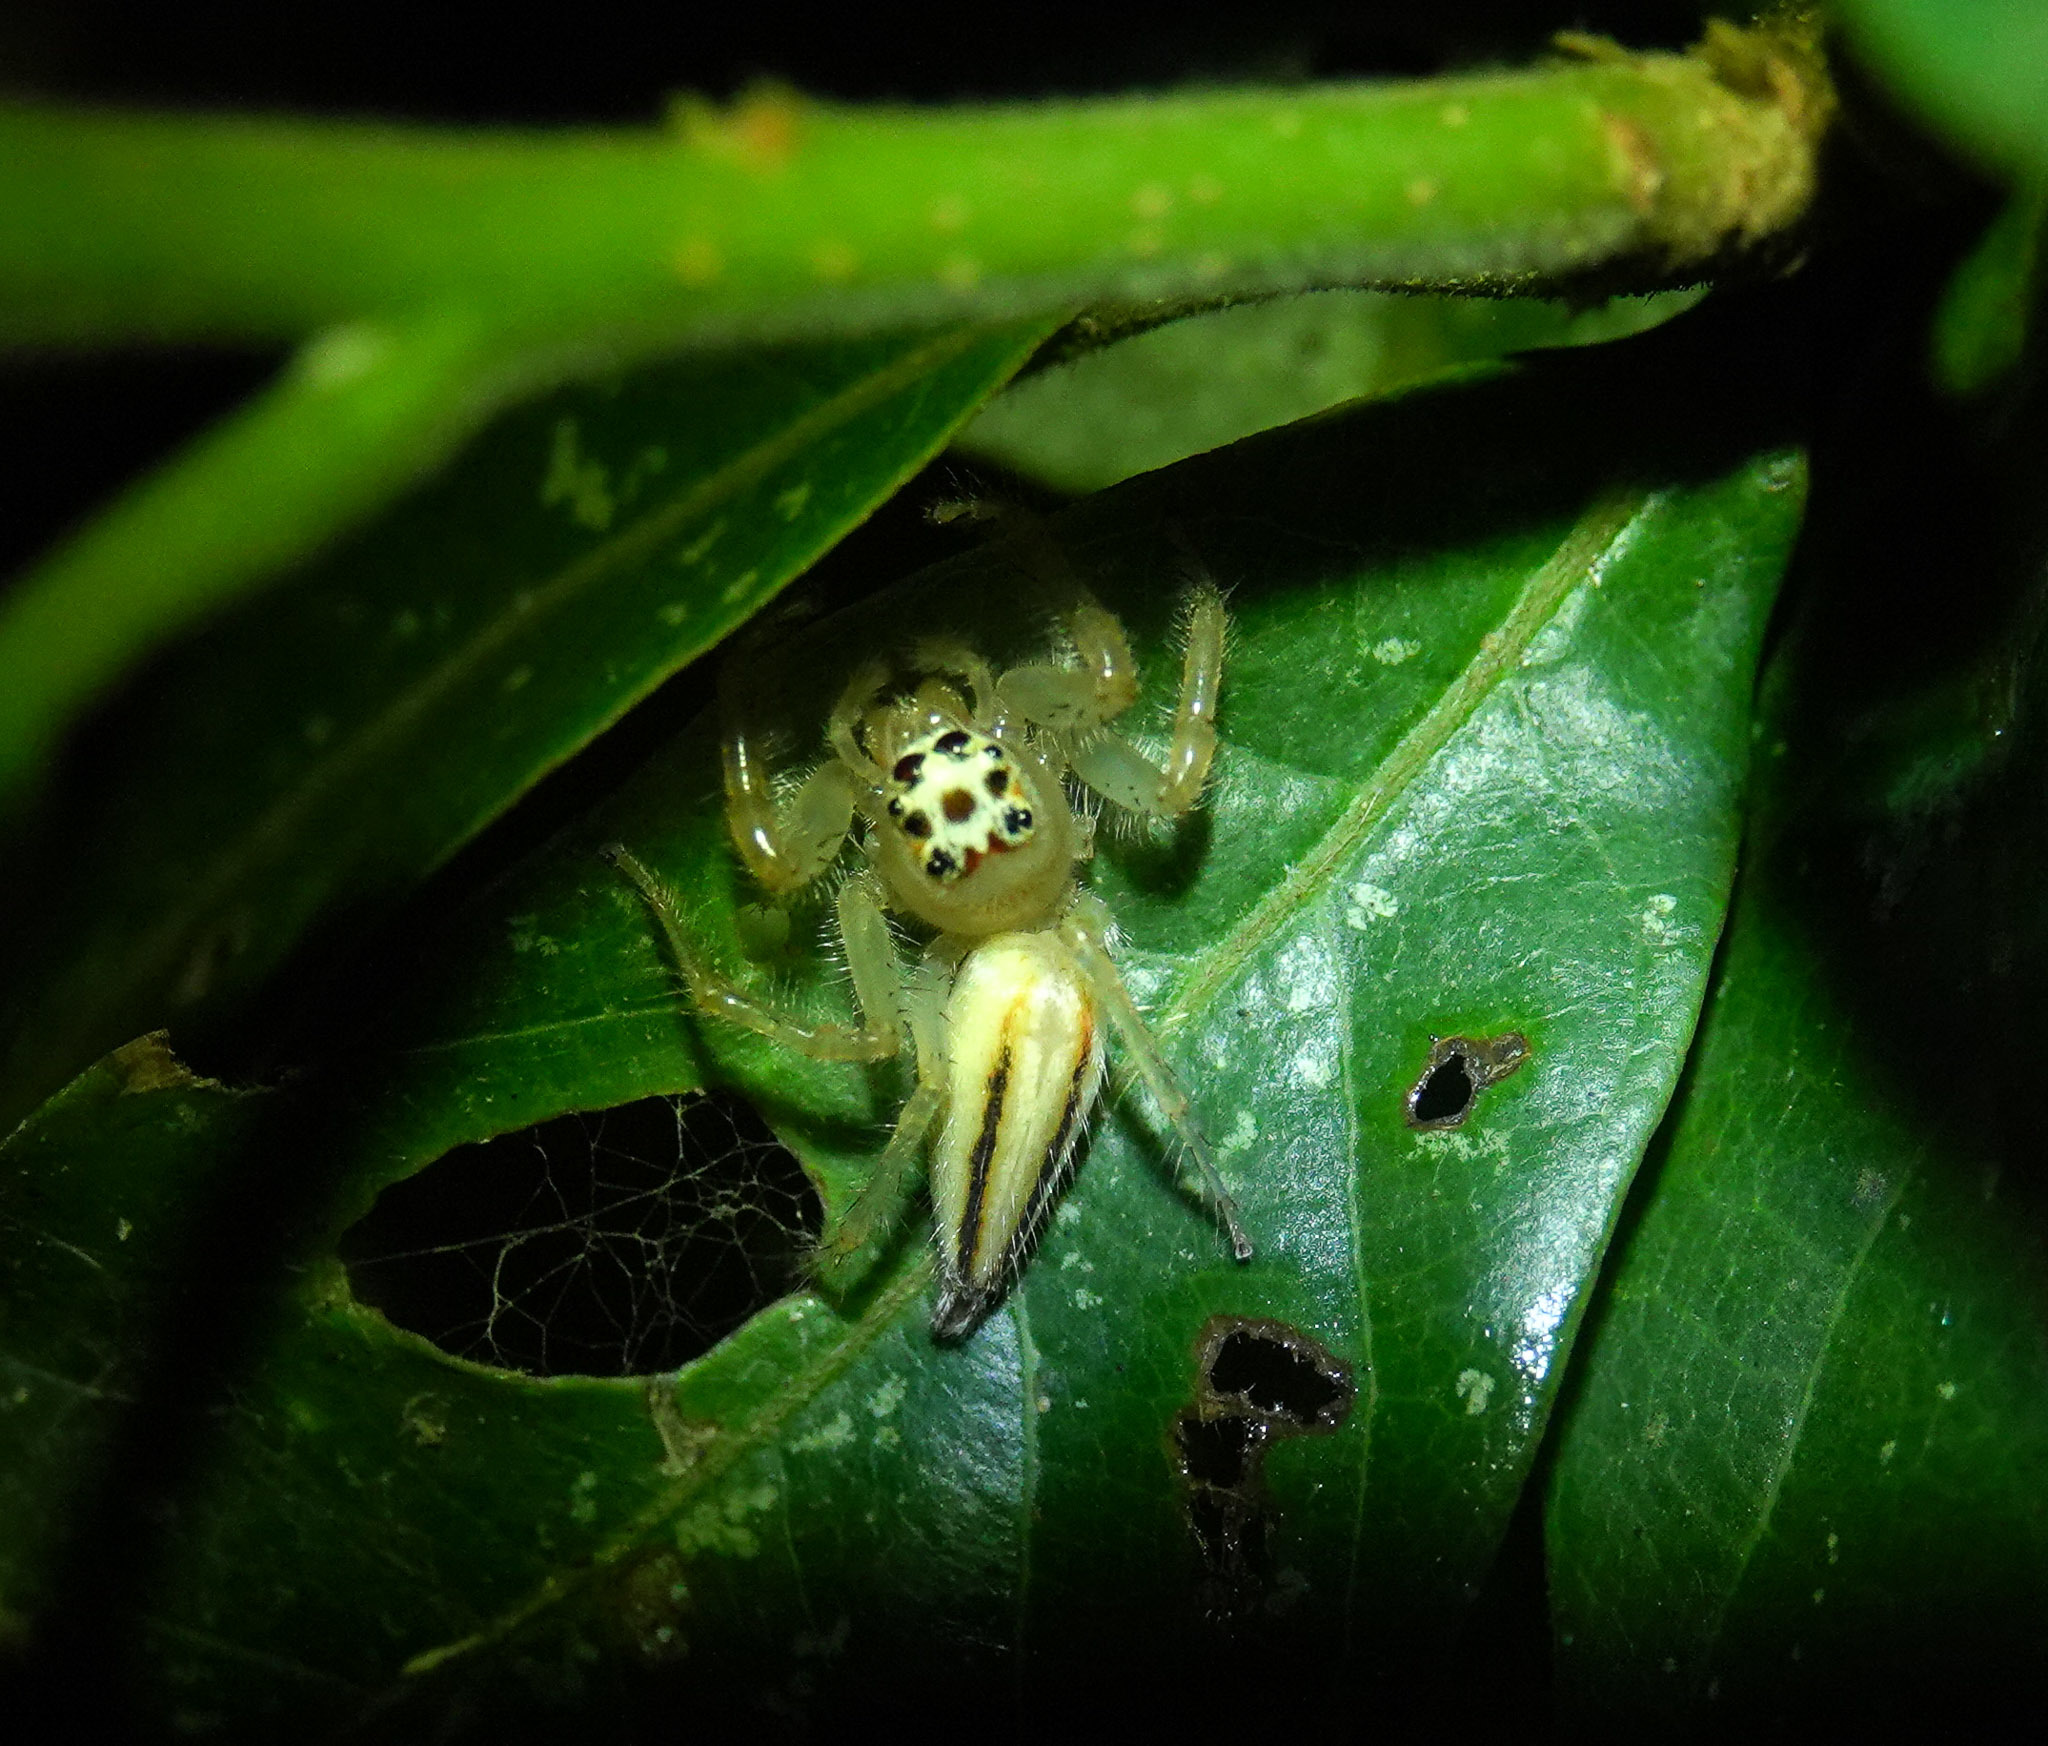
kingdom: Animalia
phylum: Arthropoda
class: Arachnida
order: Araneae
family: Salticidae
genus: Telamonia
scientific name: Telamonia dimidiata
